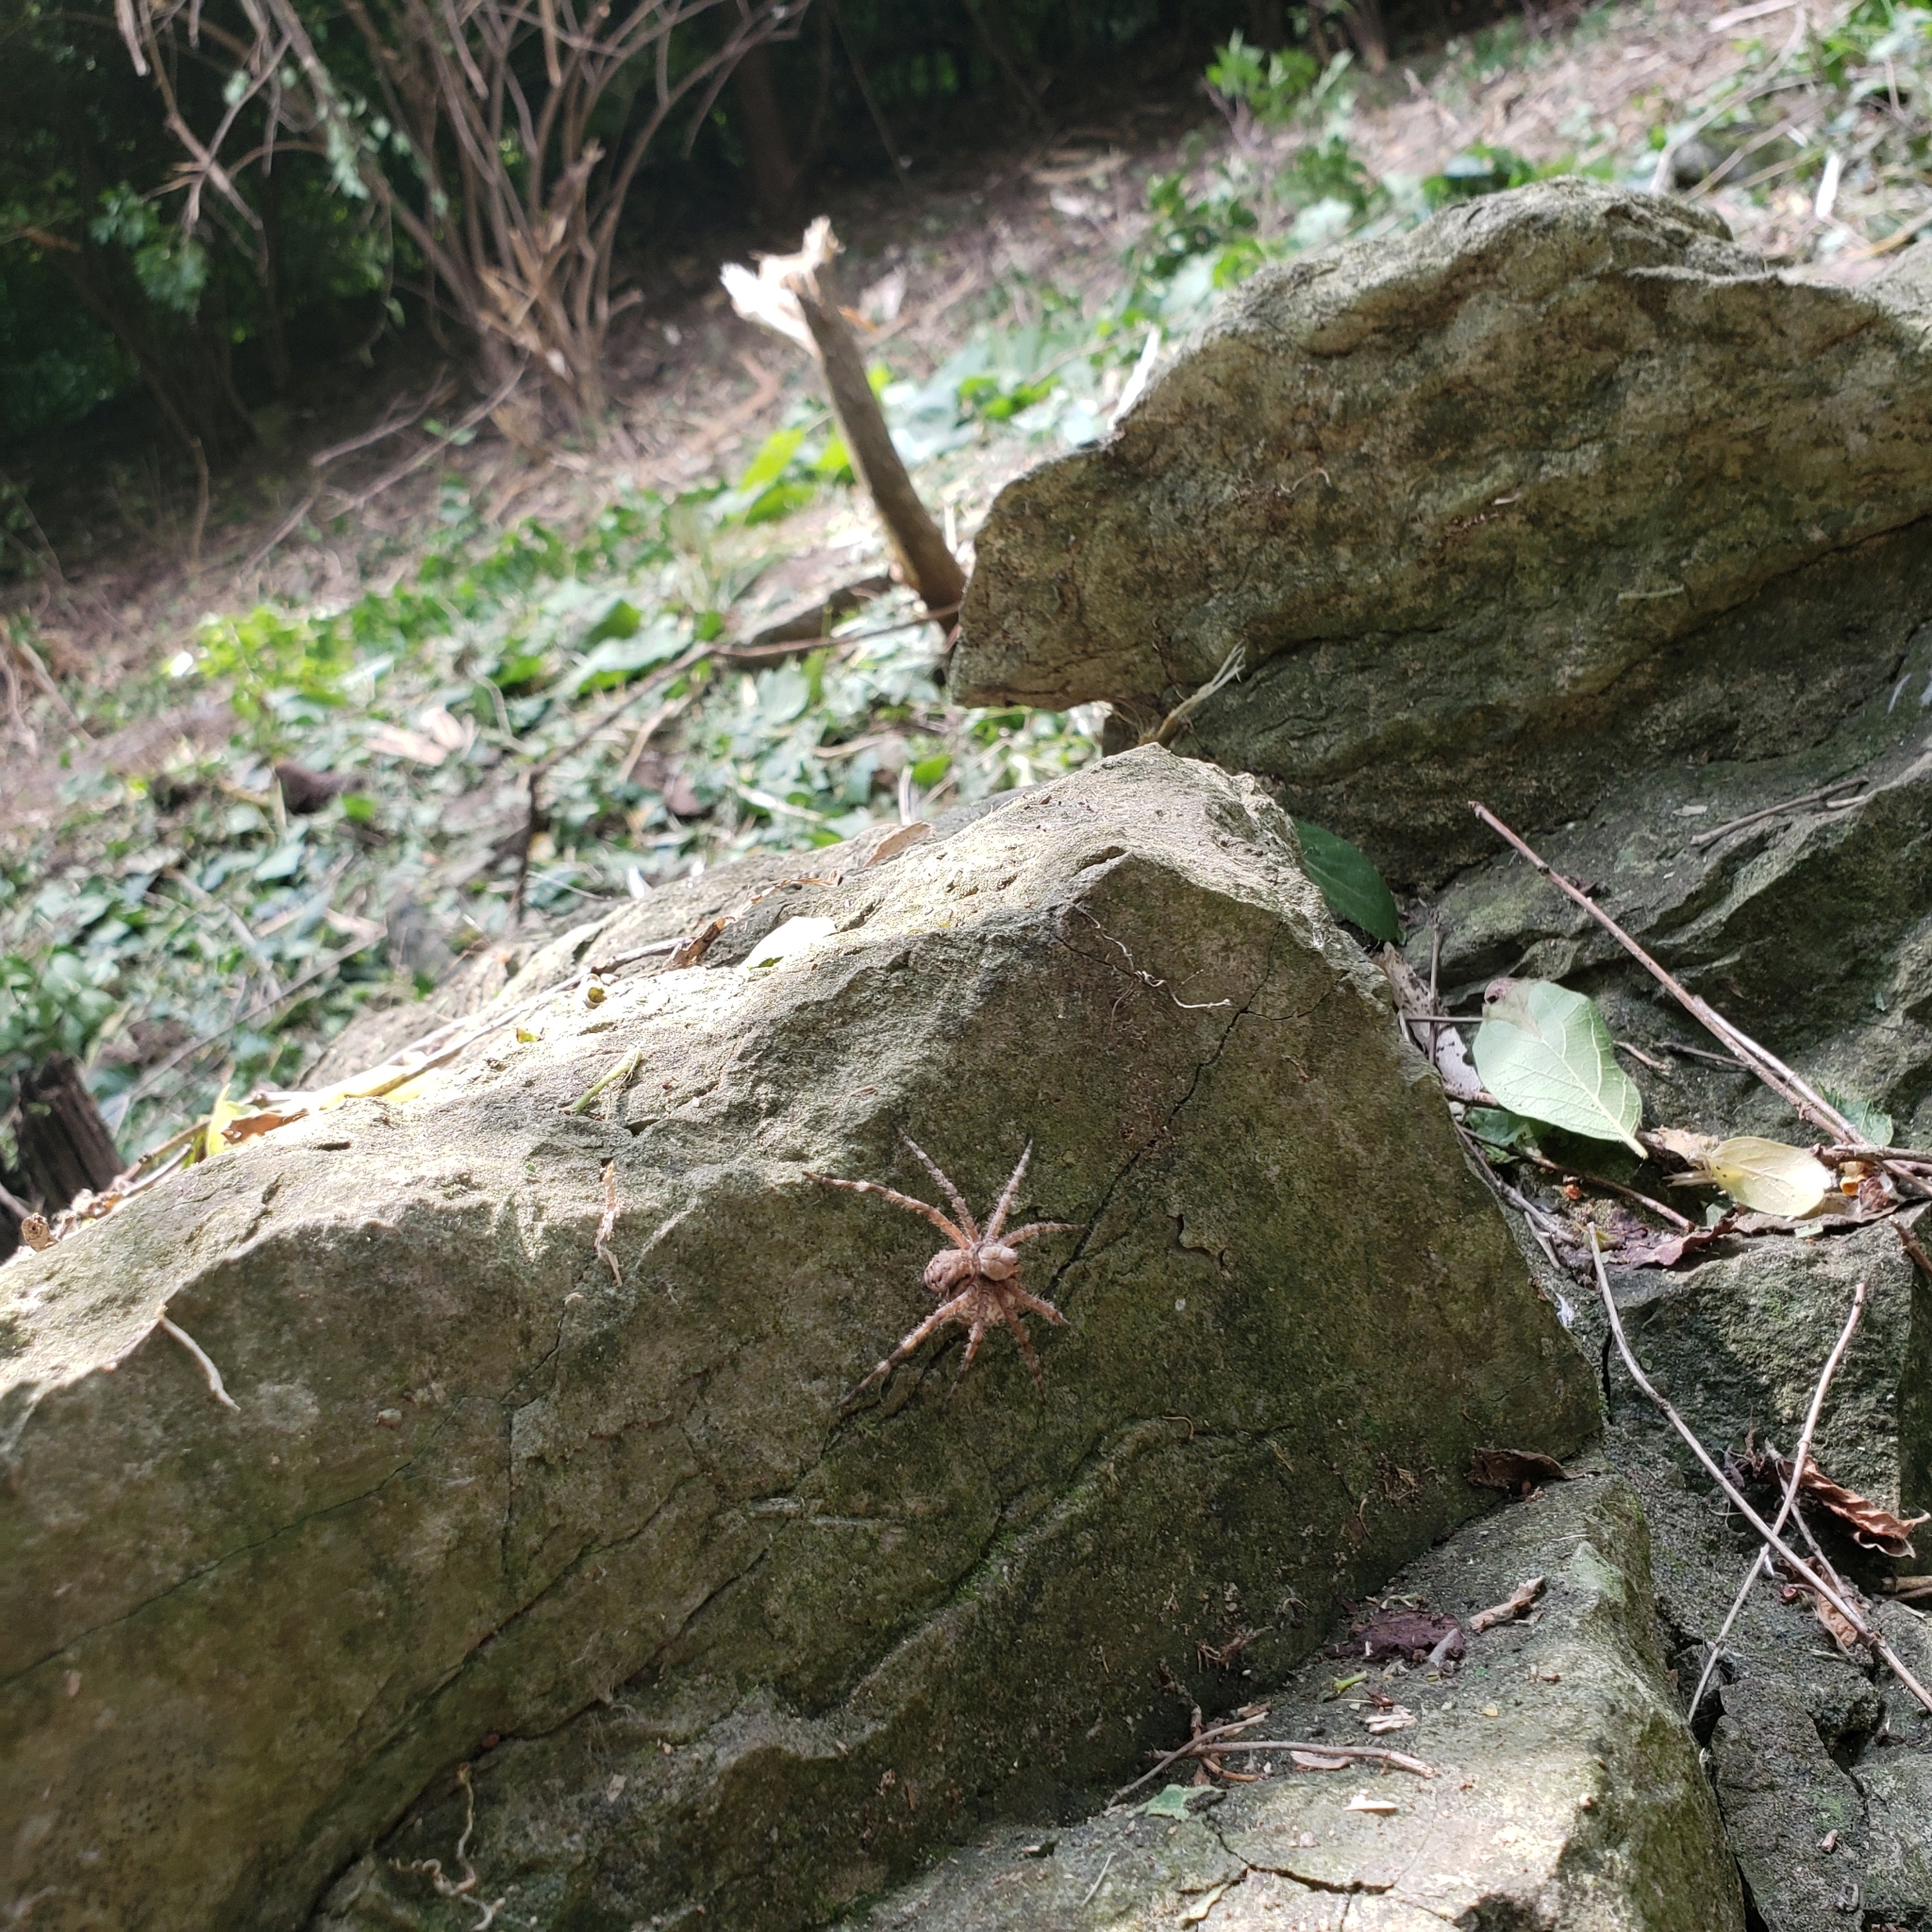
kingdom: Animalia
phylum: Arthropoda
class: Arachnida
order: Araneae
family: Pisauridae
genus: Dolomedes
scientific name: Dolomedes albineus
